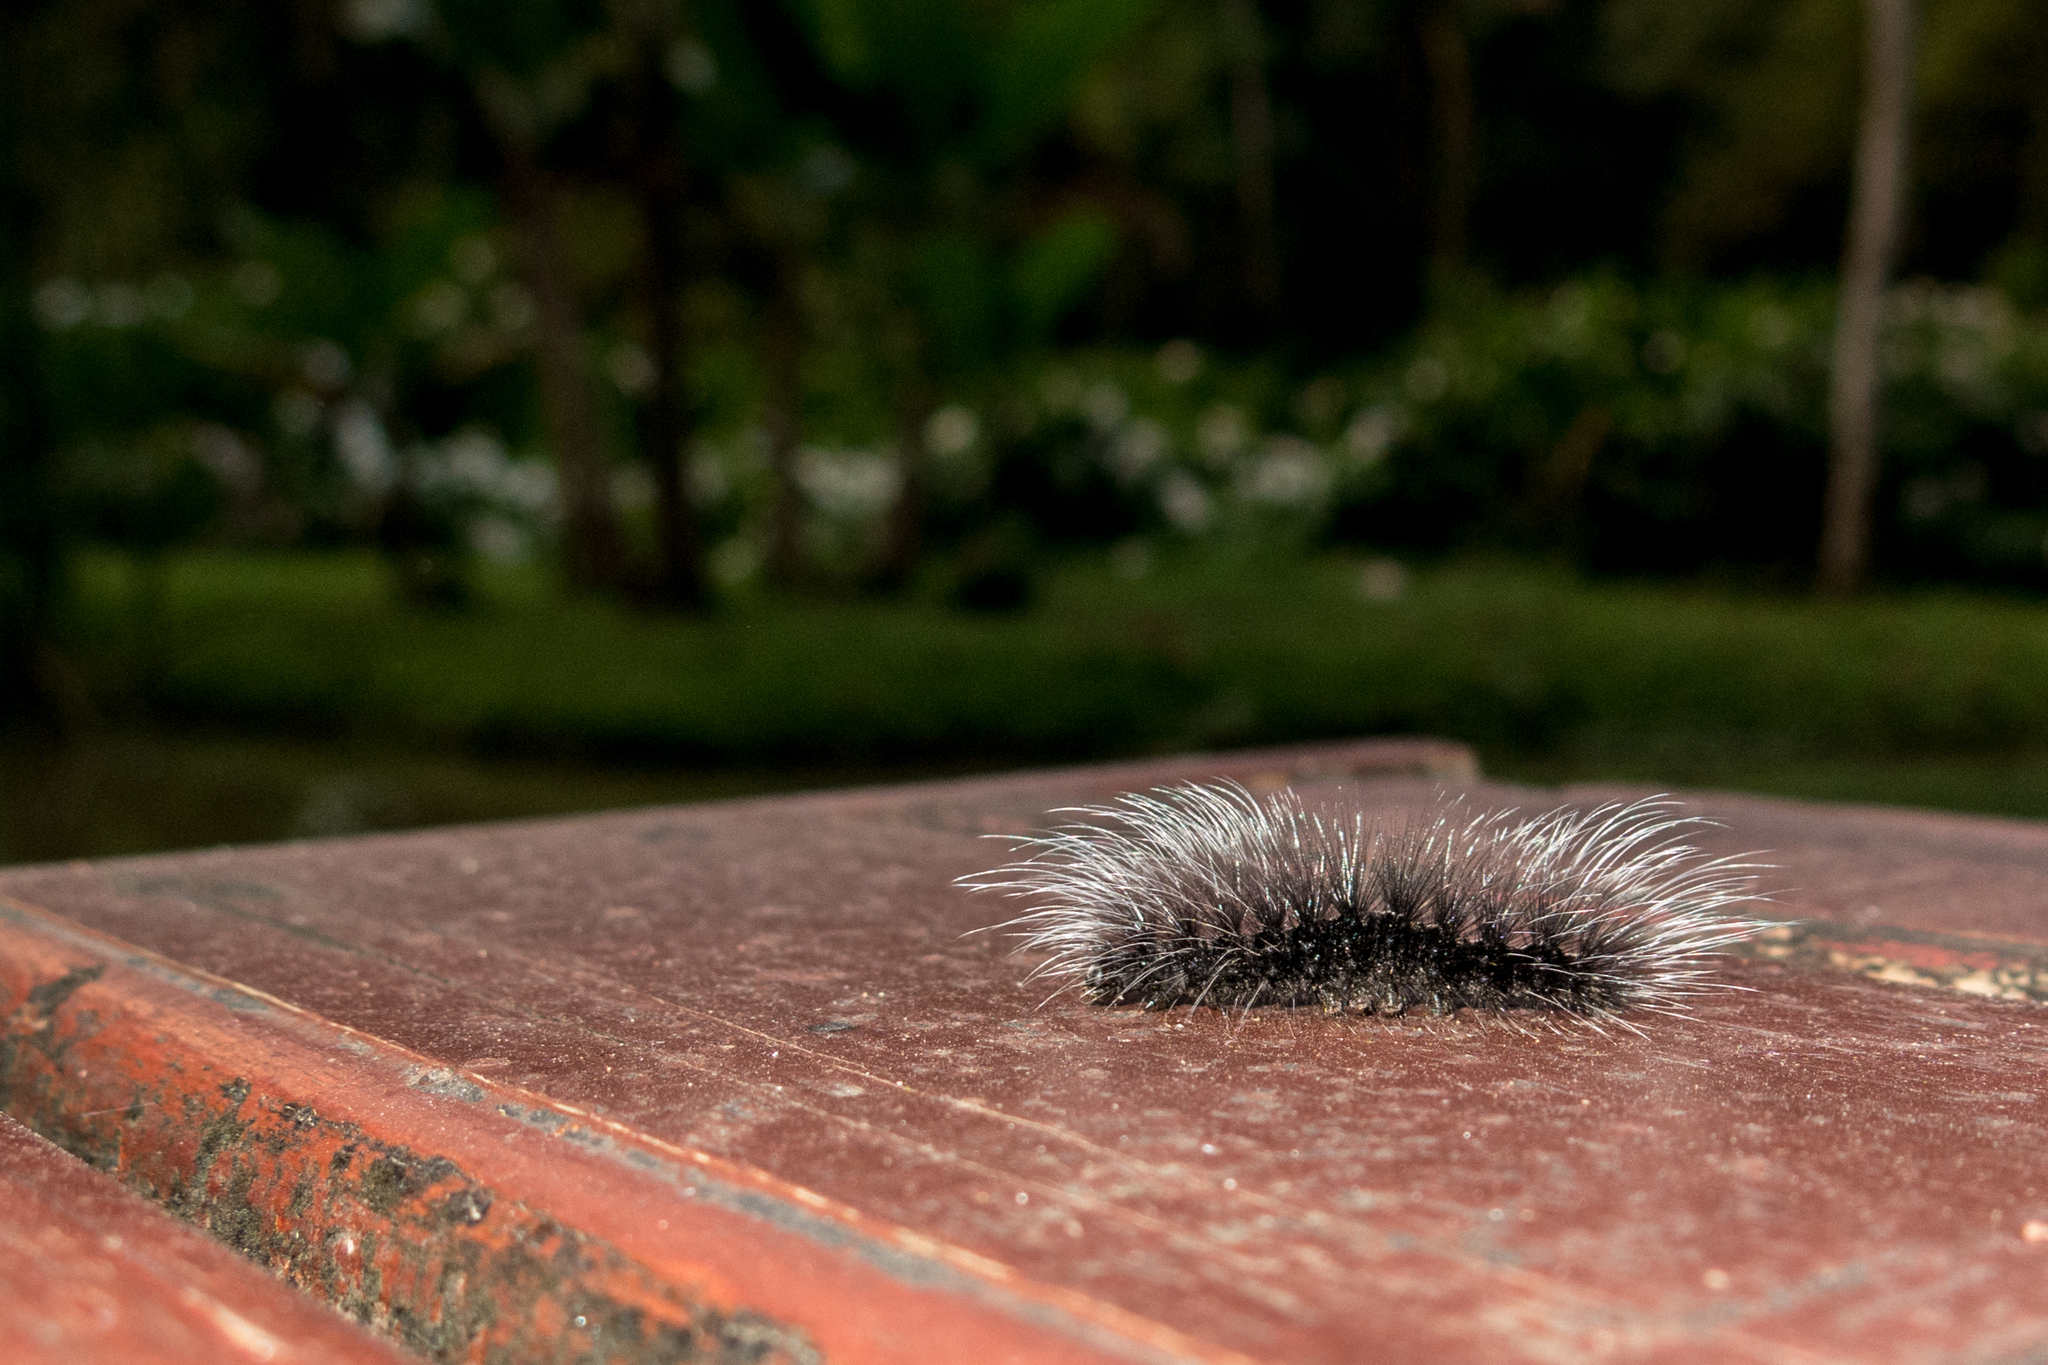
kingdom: Animalia
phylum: Arthropoda
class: Insecta
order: Lepidoptera
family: Erebidae
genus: Apistosia
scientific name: Apistosia judas
